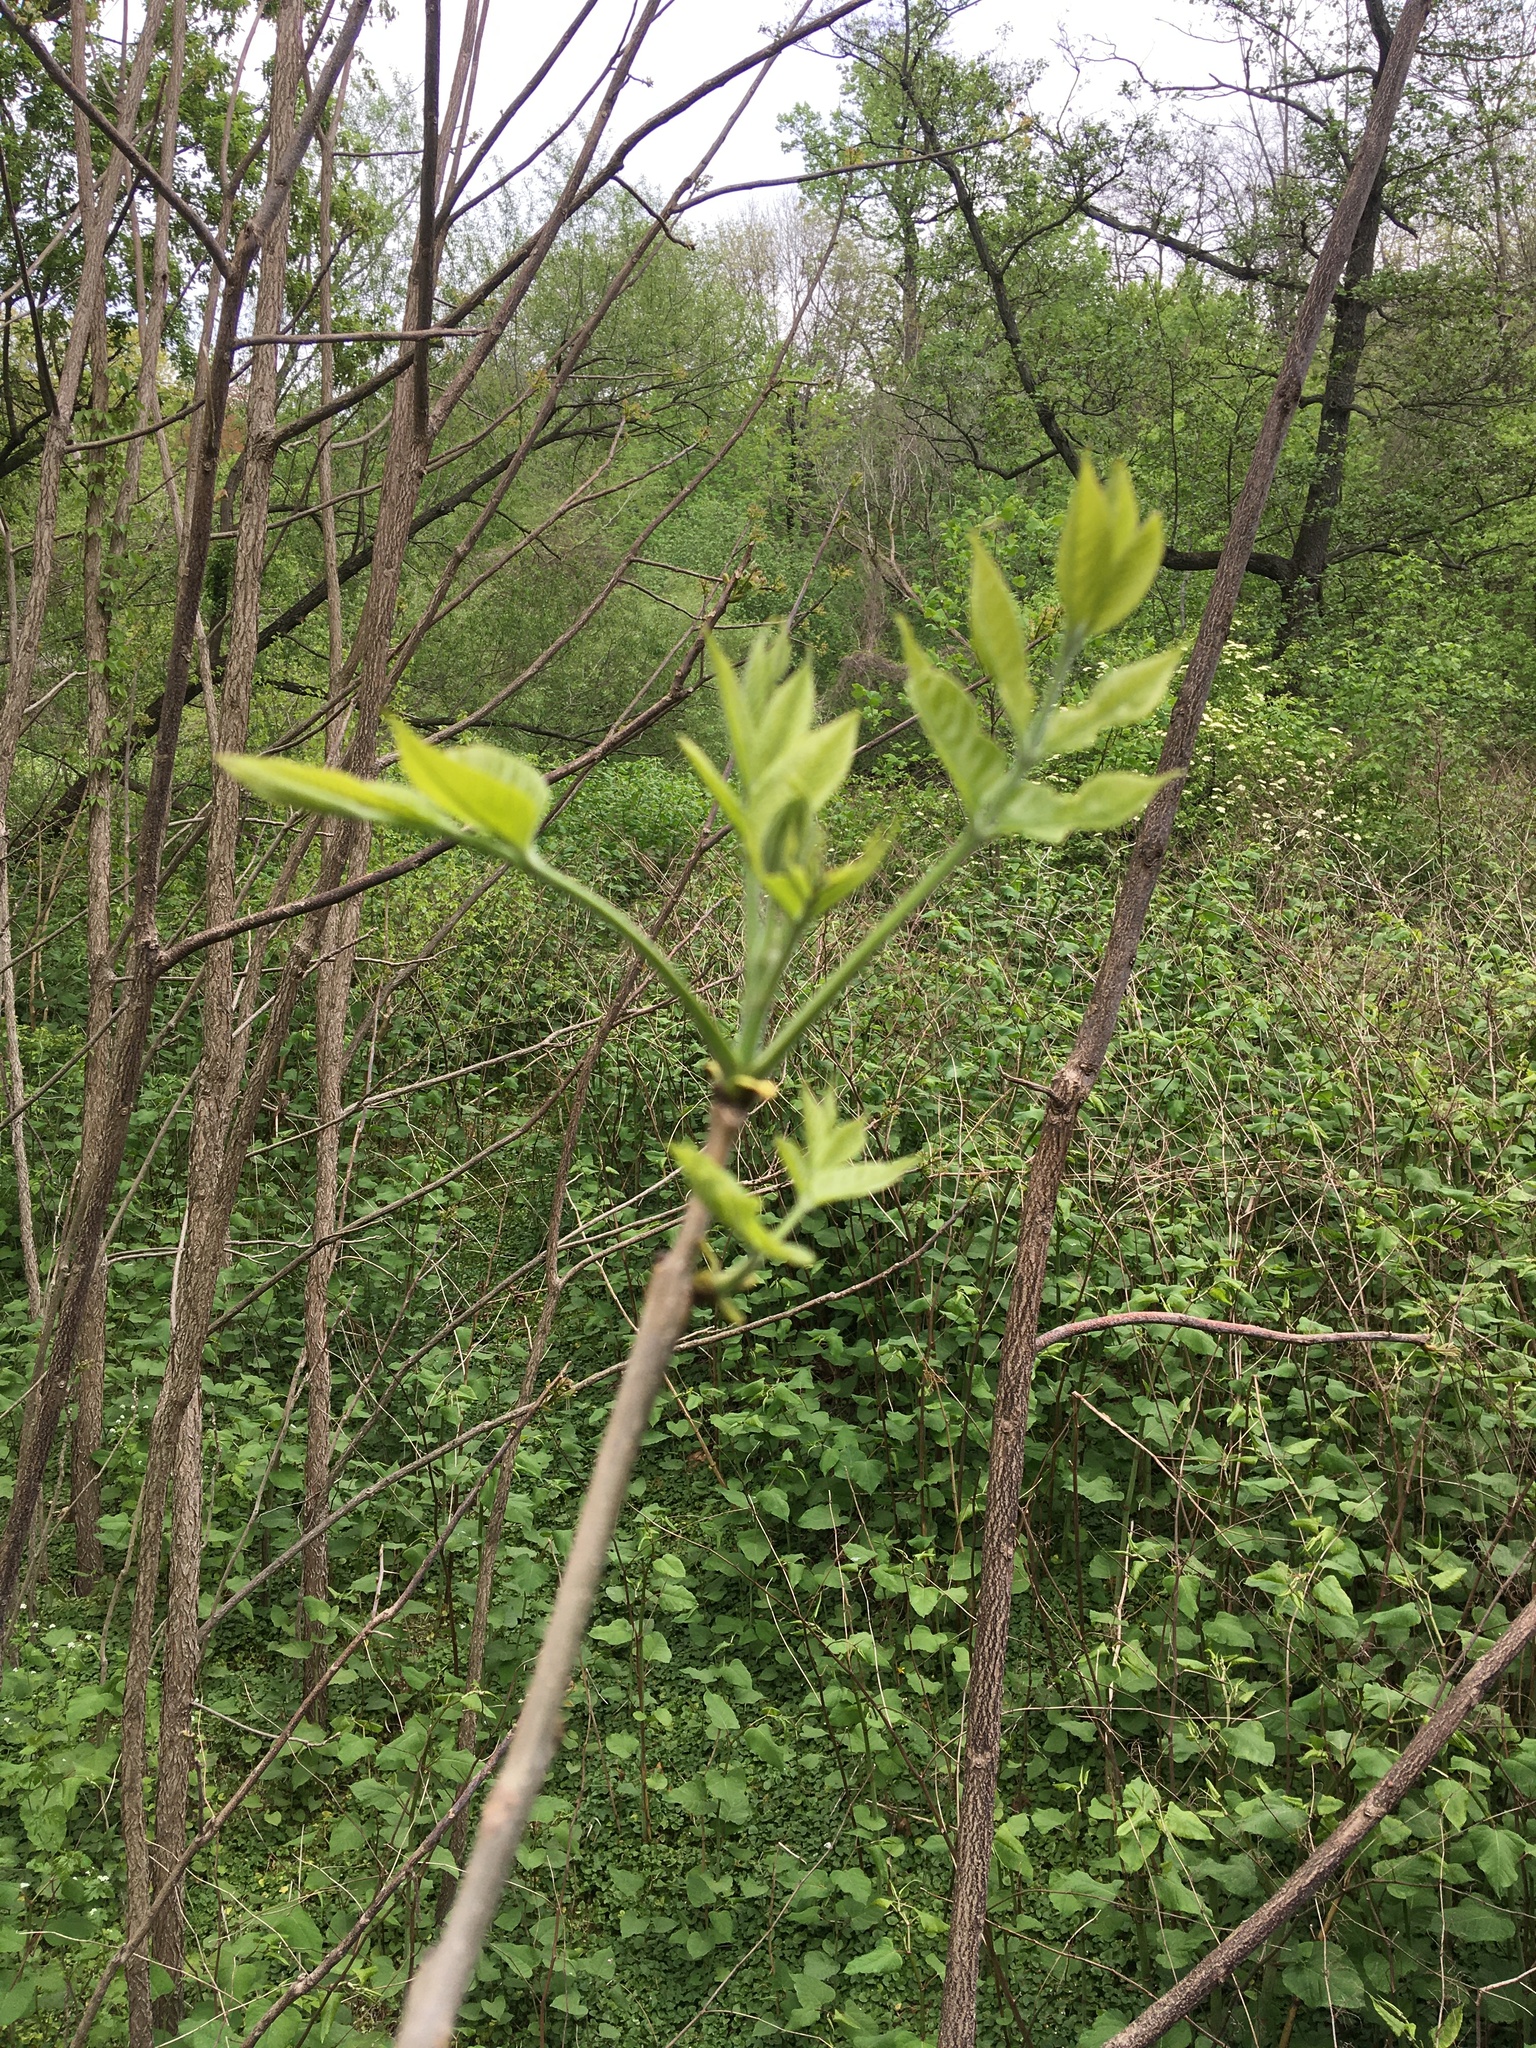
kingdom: Plantae
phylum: Tracheophyta
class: Magnoliopsida
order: Lamiales
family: Oleaceae
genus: Fraxinus
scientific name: Fraxinus pennsylvanica
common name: Green ash
